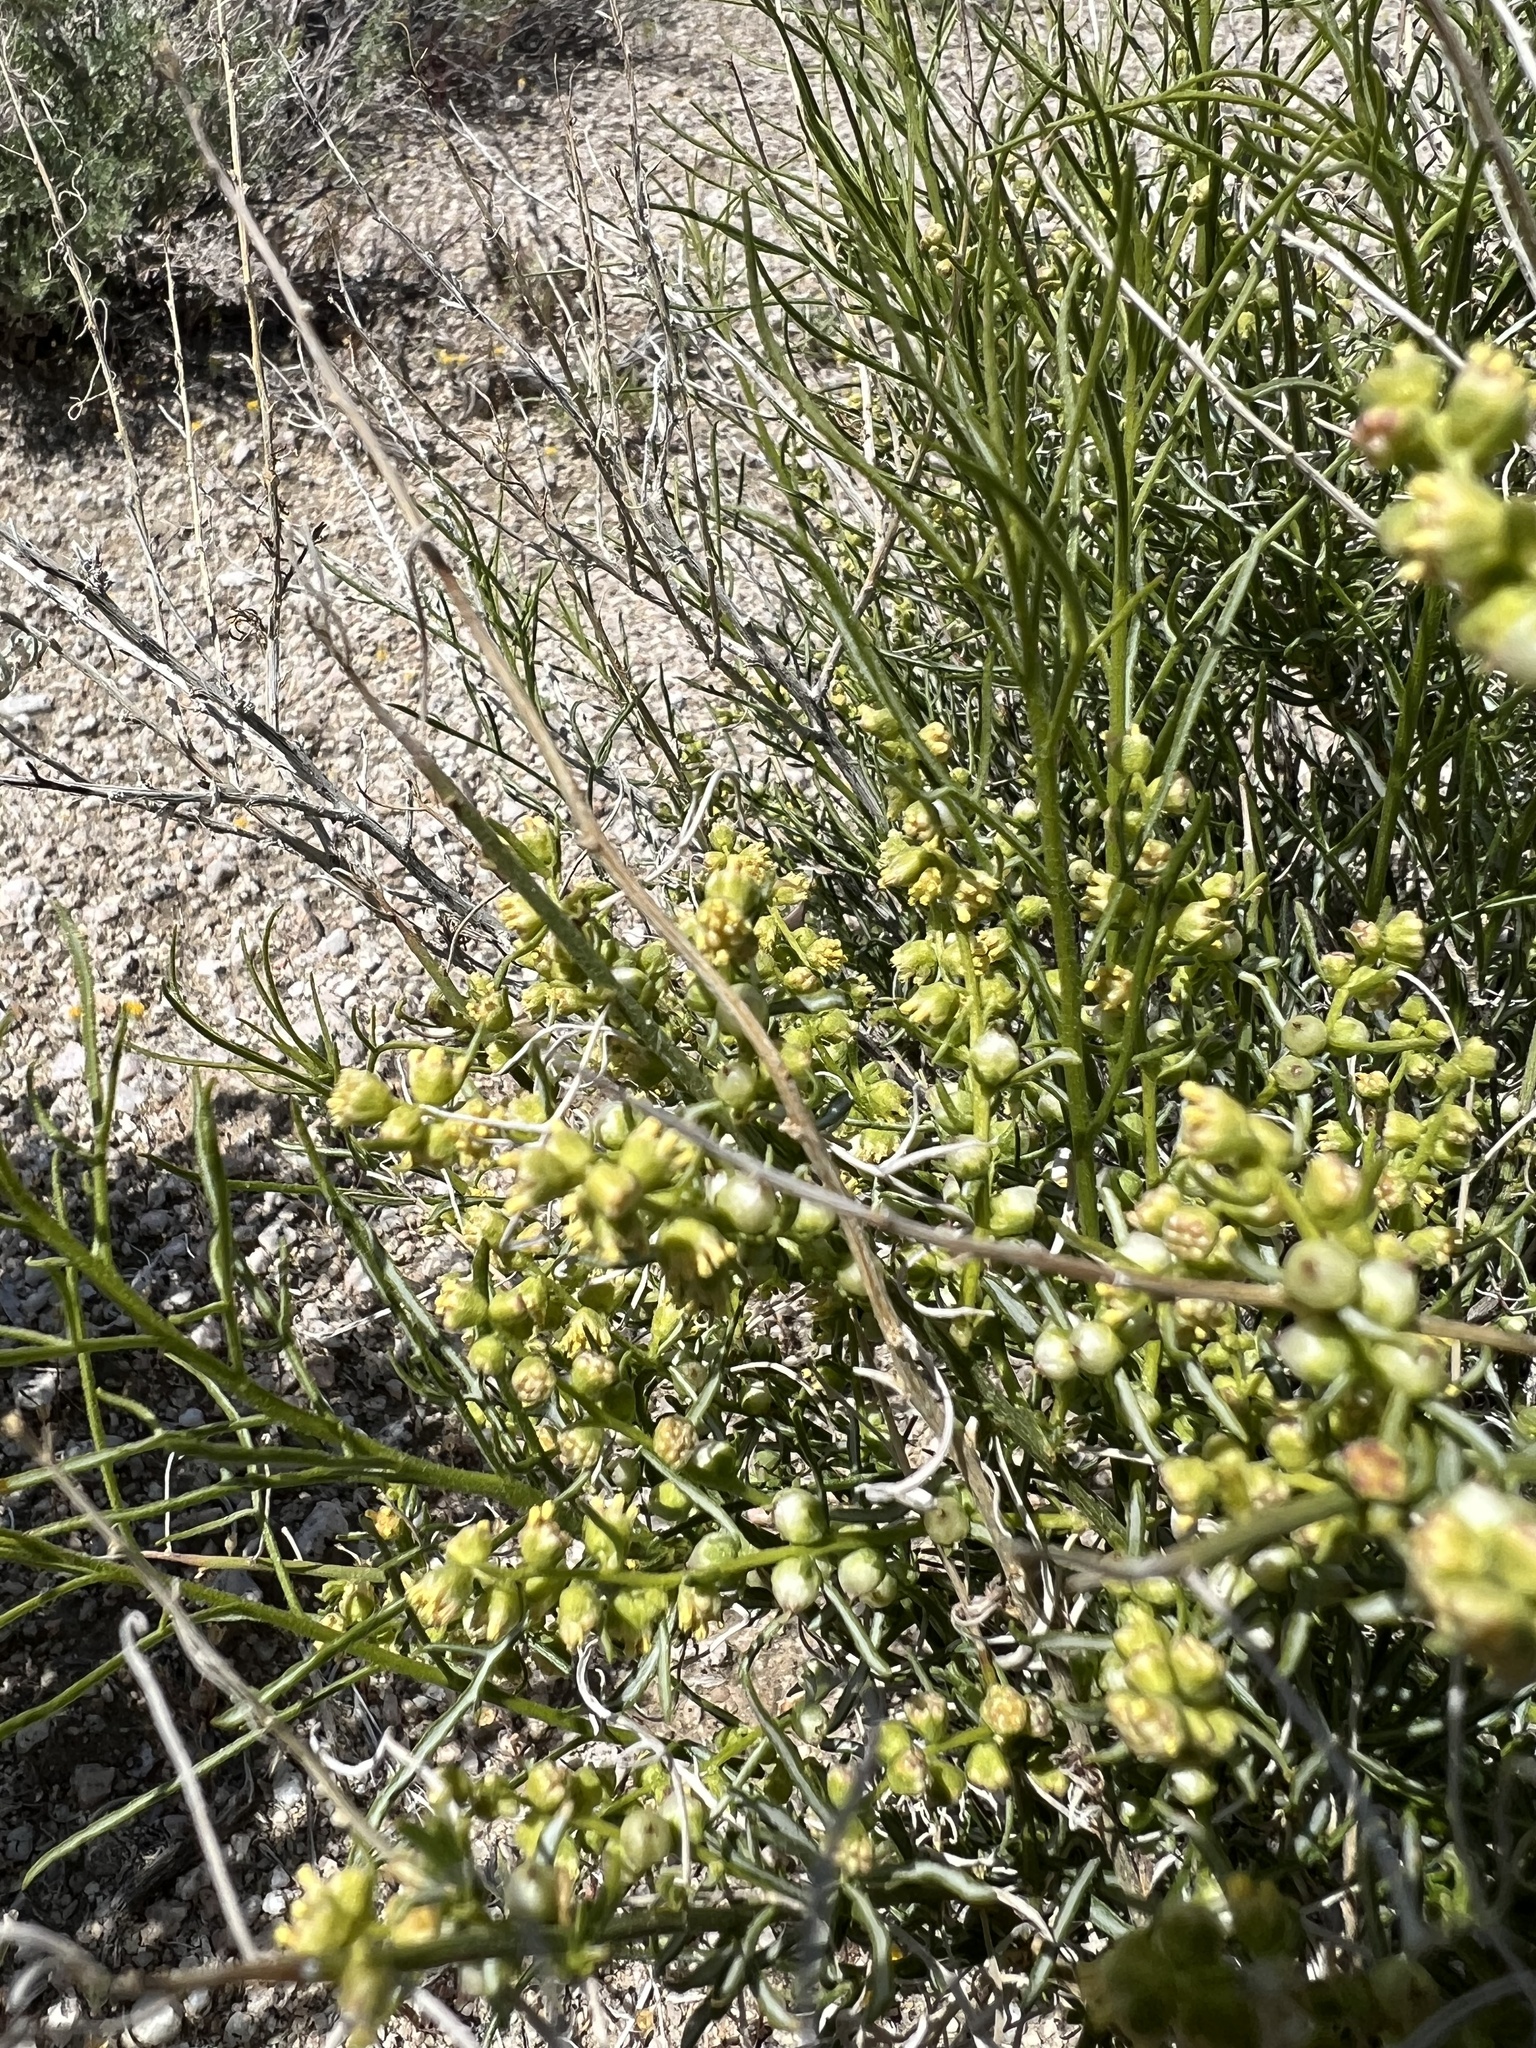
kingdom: Plantae
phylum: Tracheophyta
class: Magnoliopsida
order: Asterales
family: Asteraceae
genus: Ambrosia
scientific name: Ambrosia salsola
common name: Burrobrush
